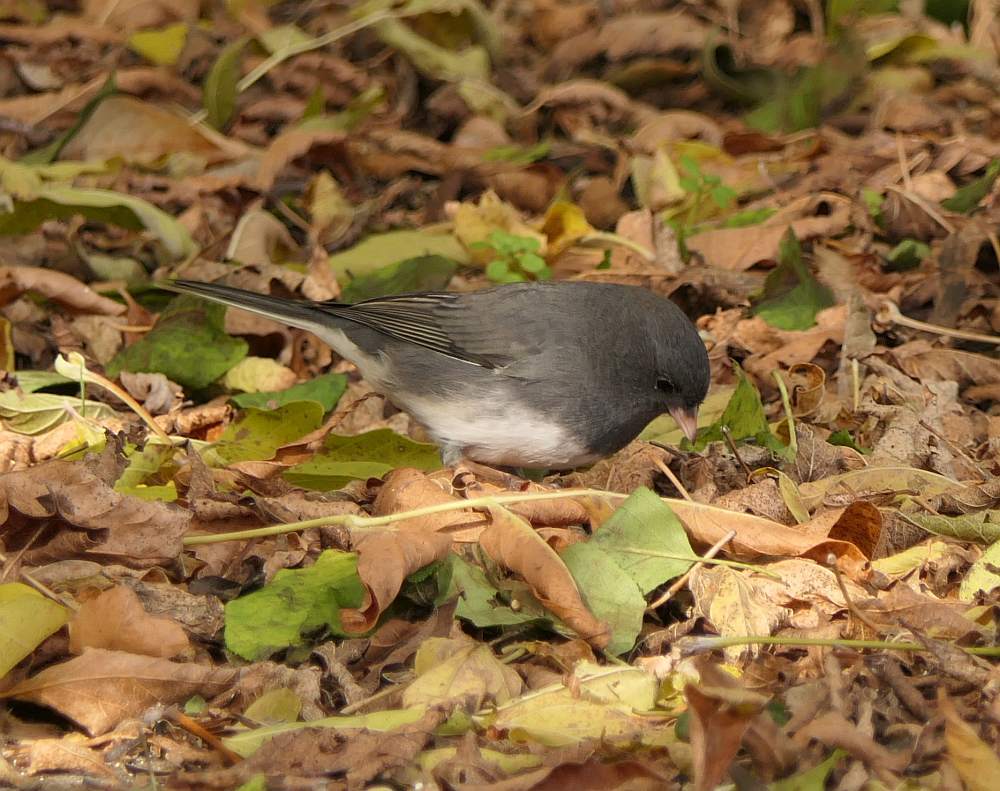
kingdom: Animalia
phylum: Chordata
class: Aves
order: Passeriformes
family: Passerellidae
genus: Junco
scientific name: Junco hyemalis
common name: Dark-eyed junco
